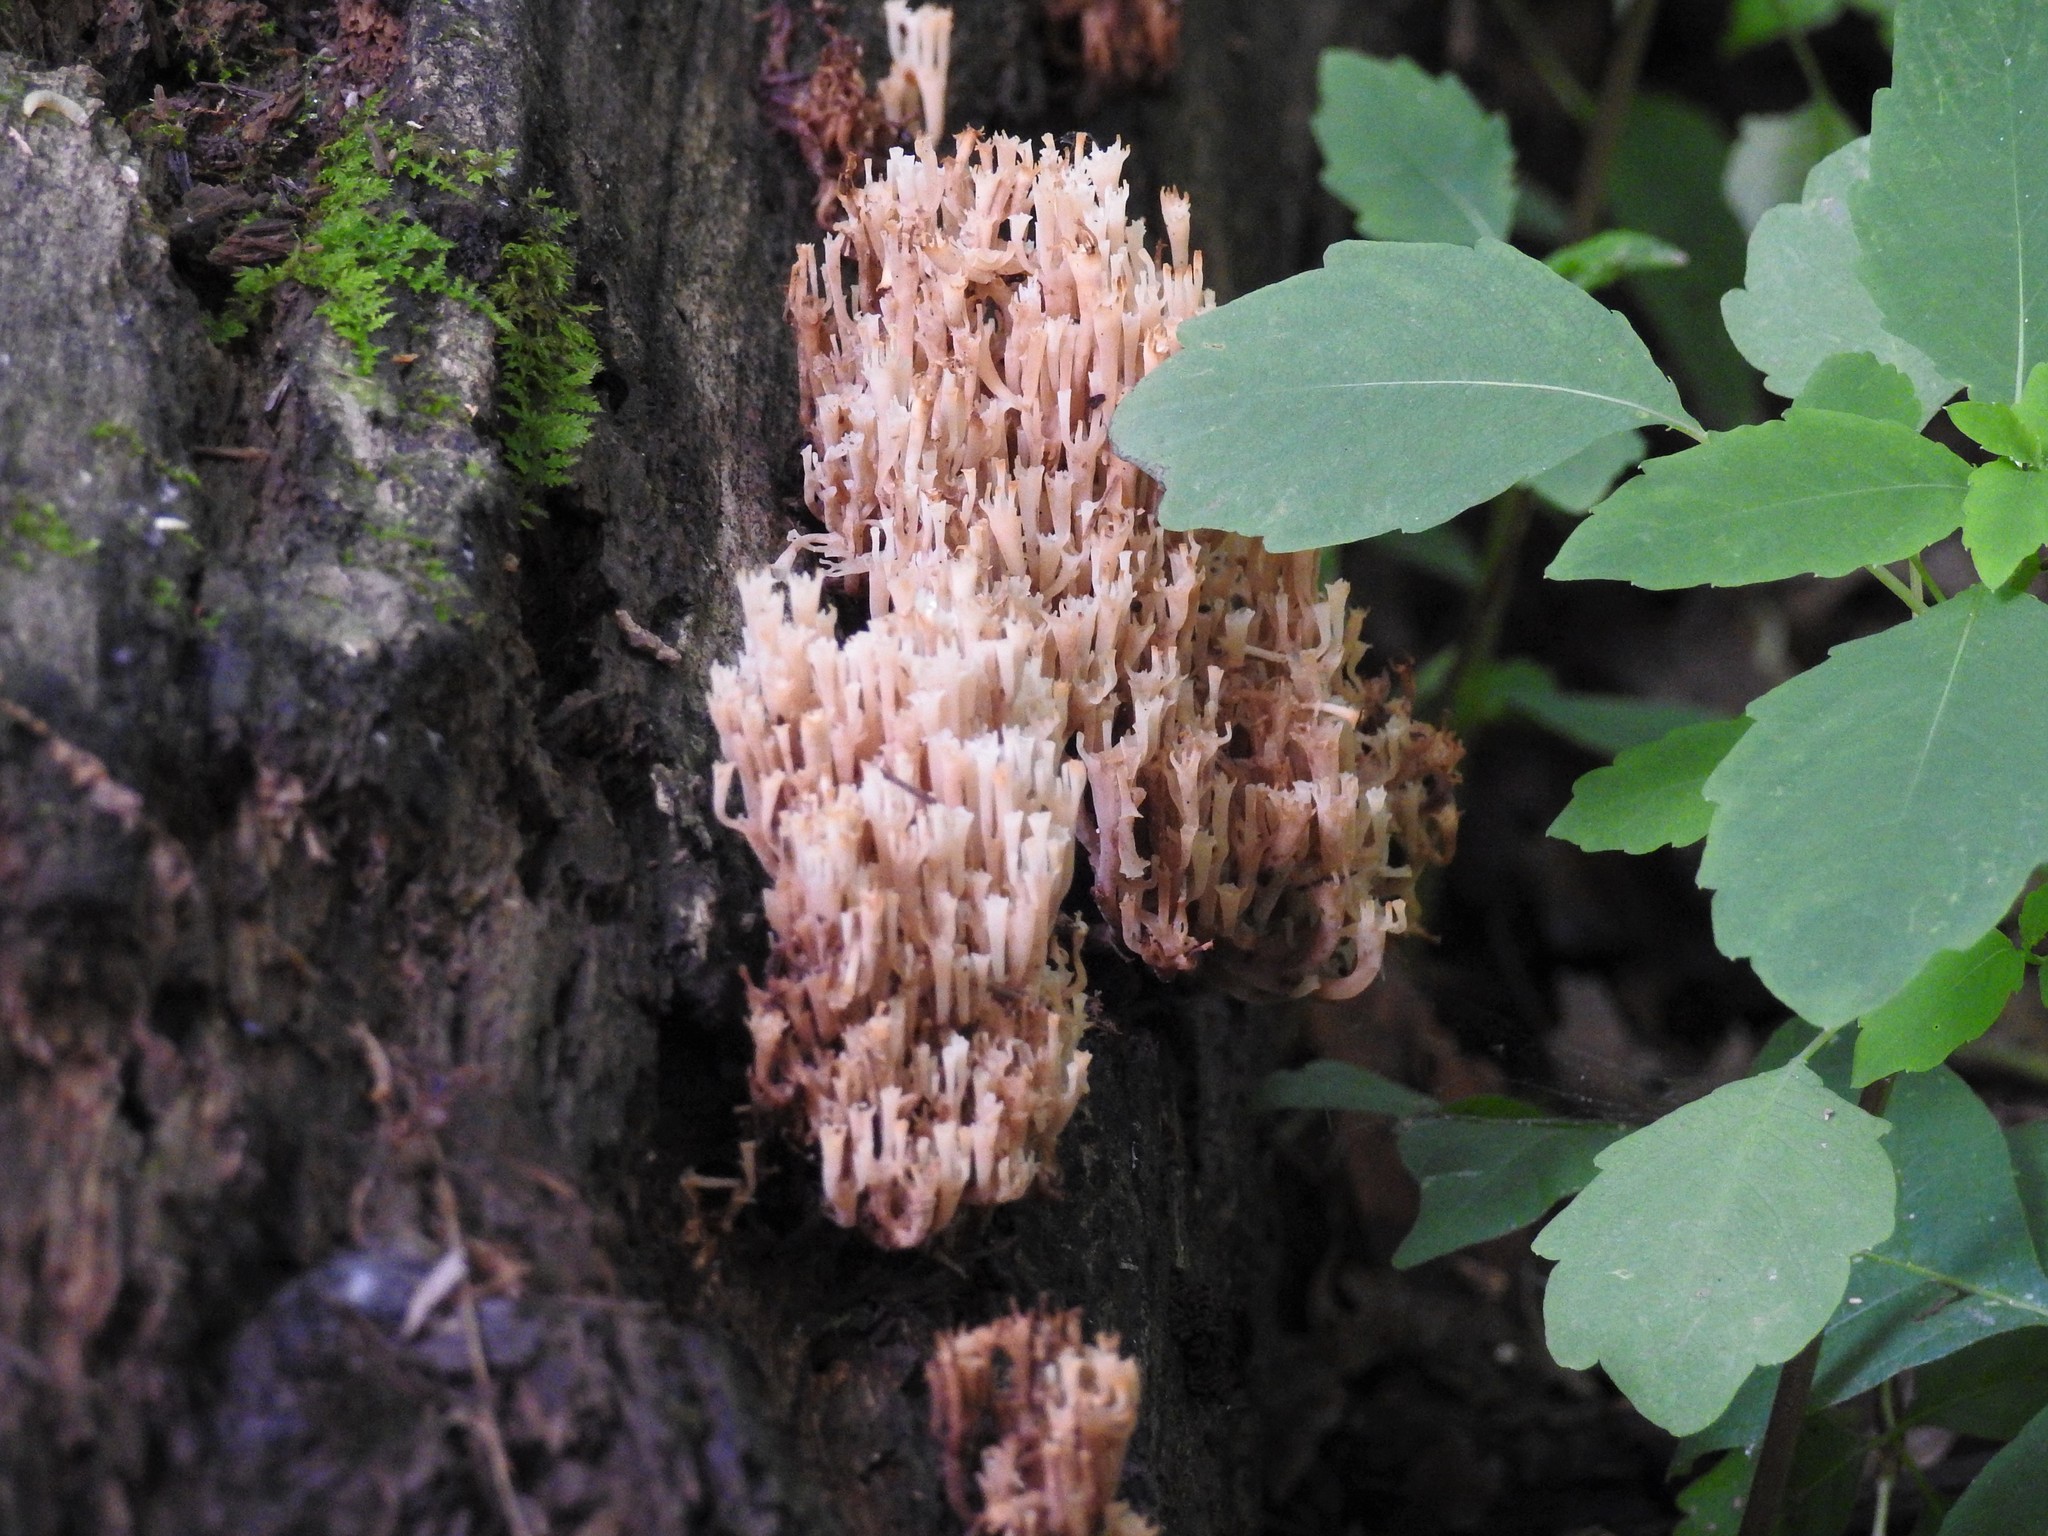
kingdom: Fungi
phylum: Basidiomycota
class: Agaricomycetes
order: Russulales
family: Auriscalpiaceae
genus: Artomyces
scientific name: Artomyces pyxidatus
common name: Crown-tipped coral fungus
